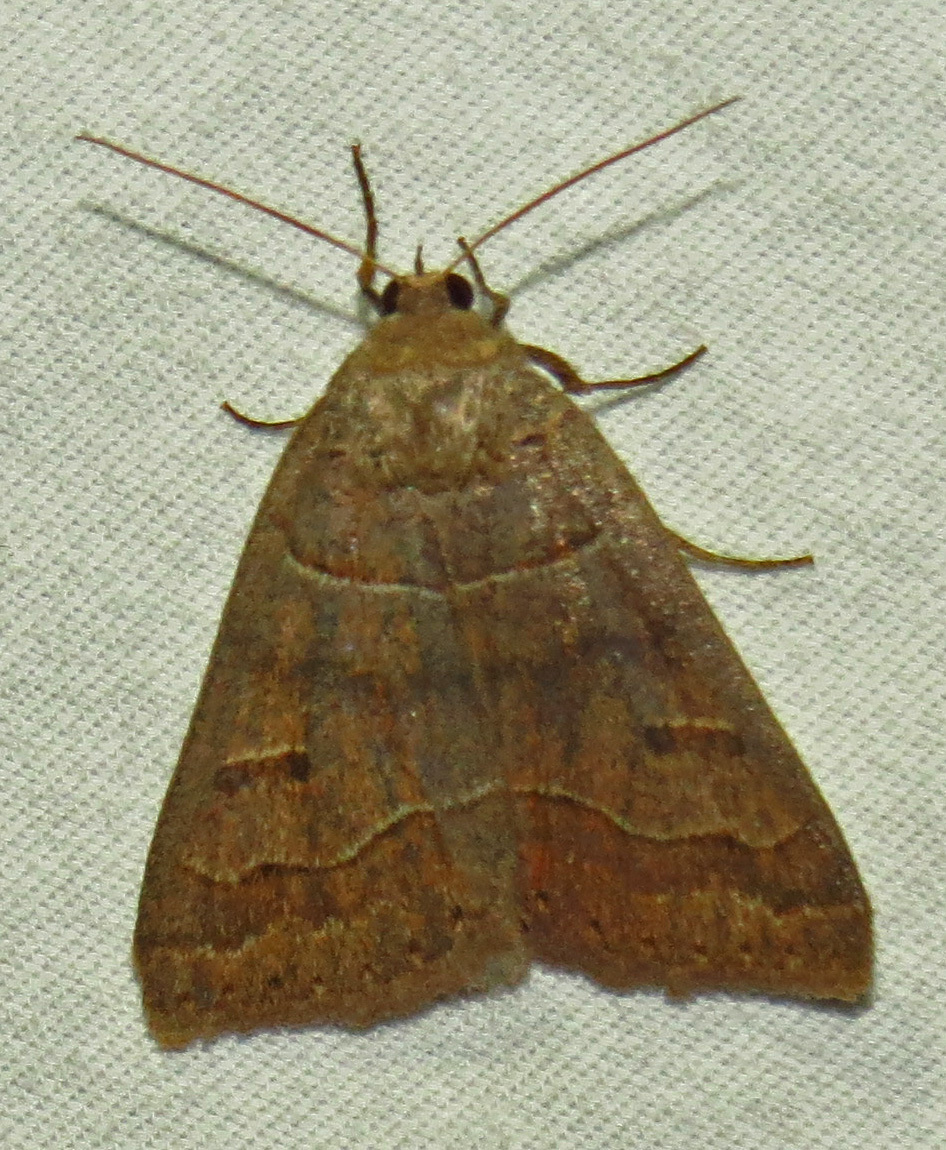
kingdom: Animalia
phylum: Arthropoda
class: Insecta
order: Lepidoptera
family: Erebidae
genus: Phoberia
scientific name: Phoberia atomaris
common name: Common oak moth
